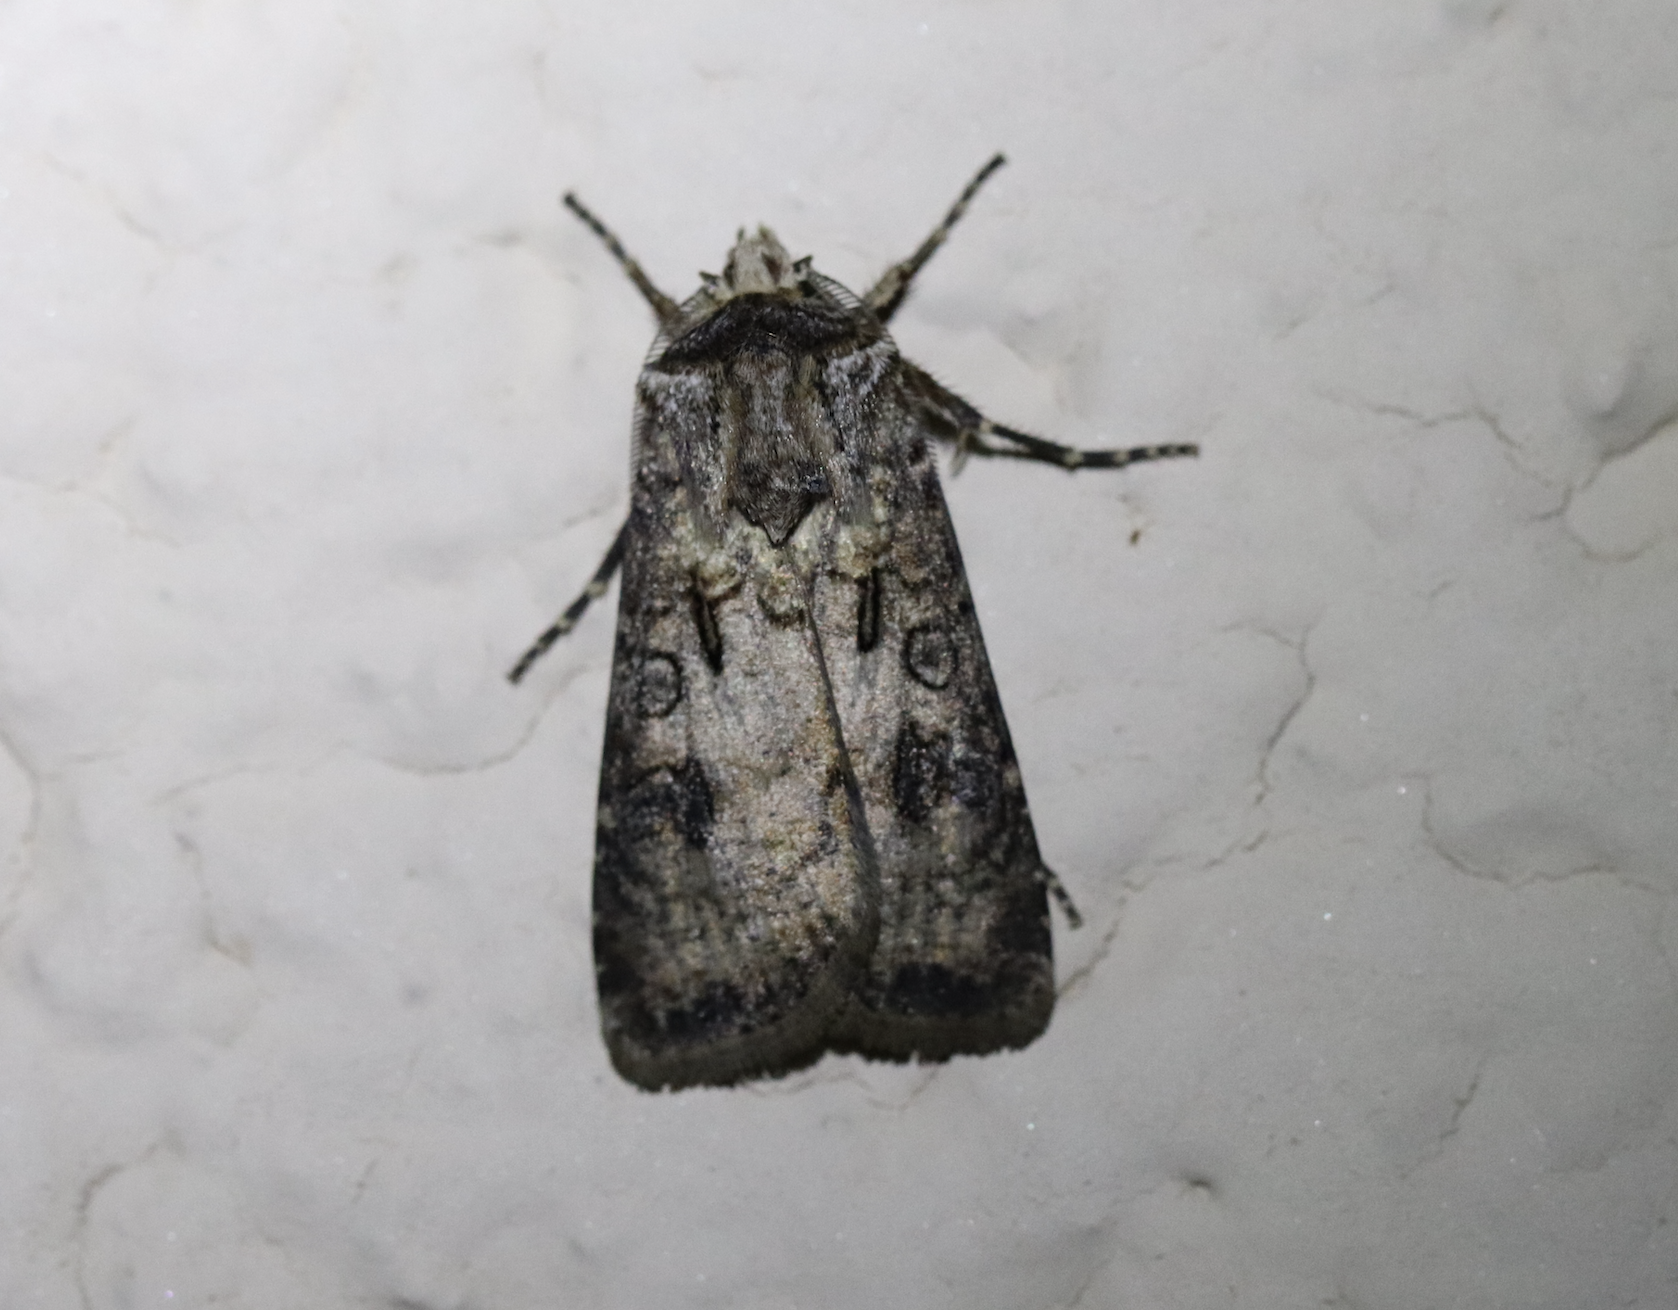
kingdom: Animalia
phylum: Arthropoda
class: Insecta
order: Lepidoptera
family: Noctuidae
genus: Agrotis
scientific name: Agrotis clavis
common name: Heart and club
